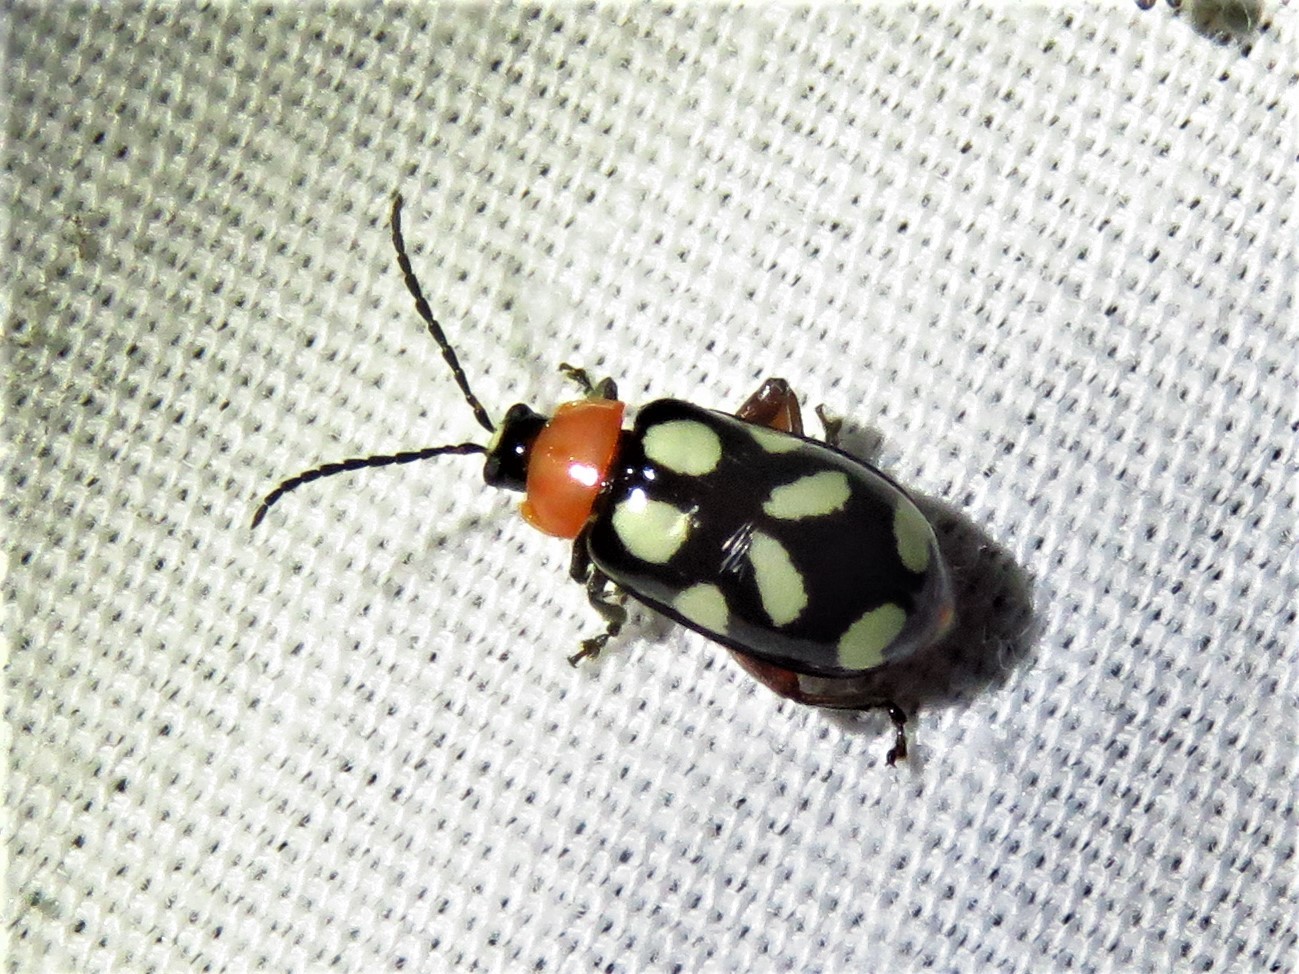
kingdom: Animalia
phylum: Arthropoda
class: Insecta
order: Coleoptera
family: Chrysomelidae
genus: Omophoita
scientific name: Omophoita cyanipennis
